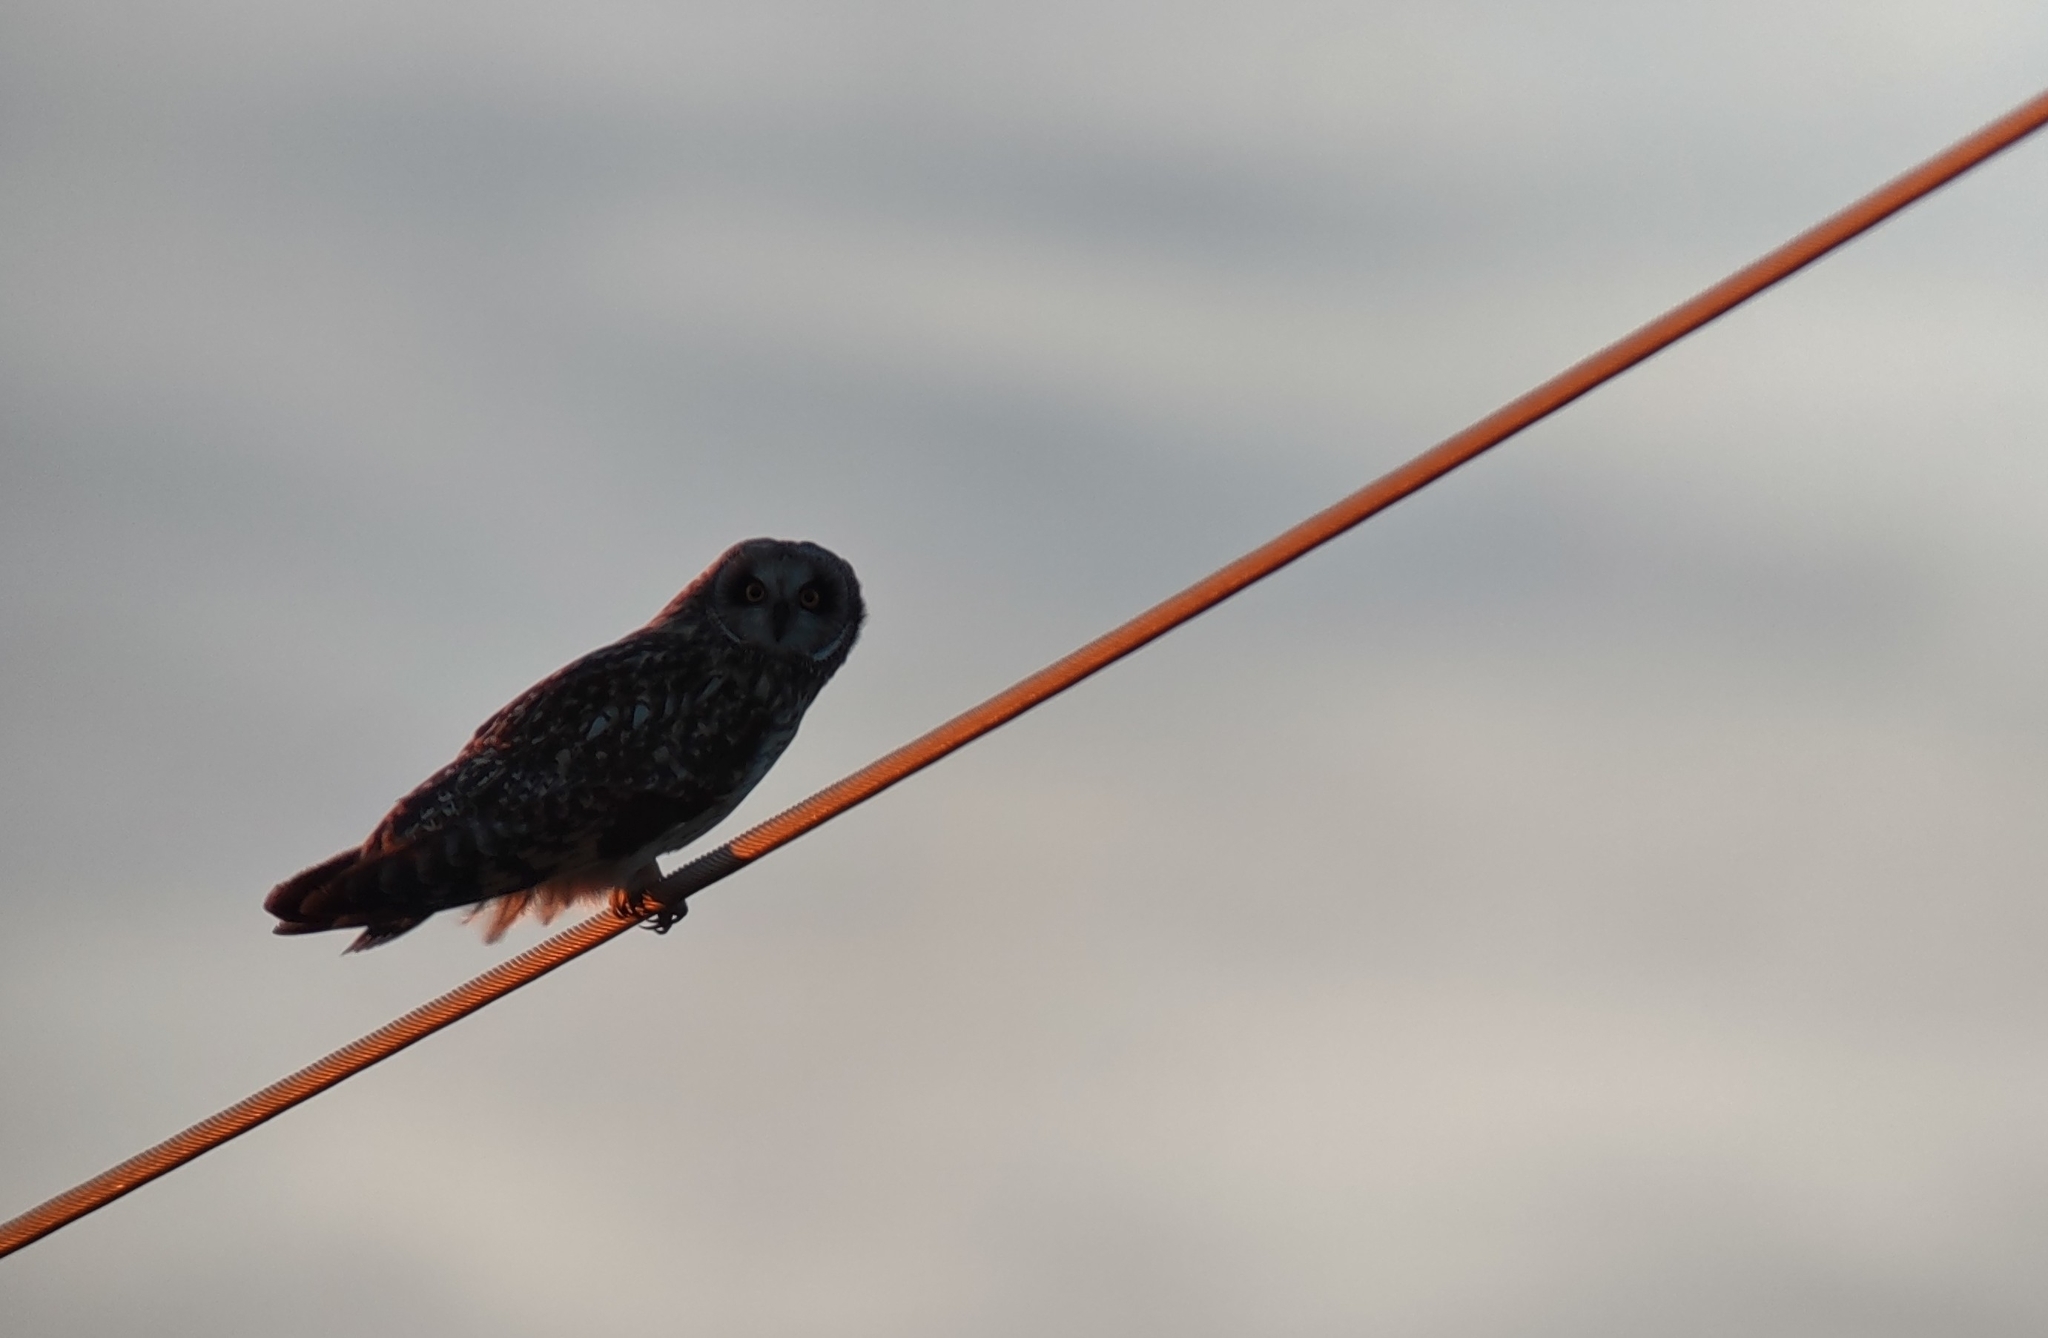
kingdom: Animalia
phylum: Chordata
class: Aves
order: Strigiformes
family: Strigidae
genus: Asio
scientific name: Asio flammeus
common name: Short-eared owl
